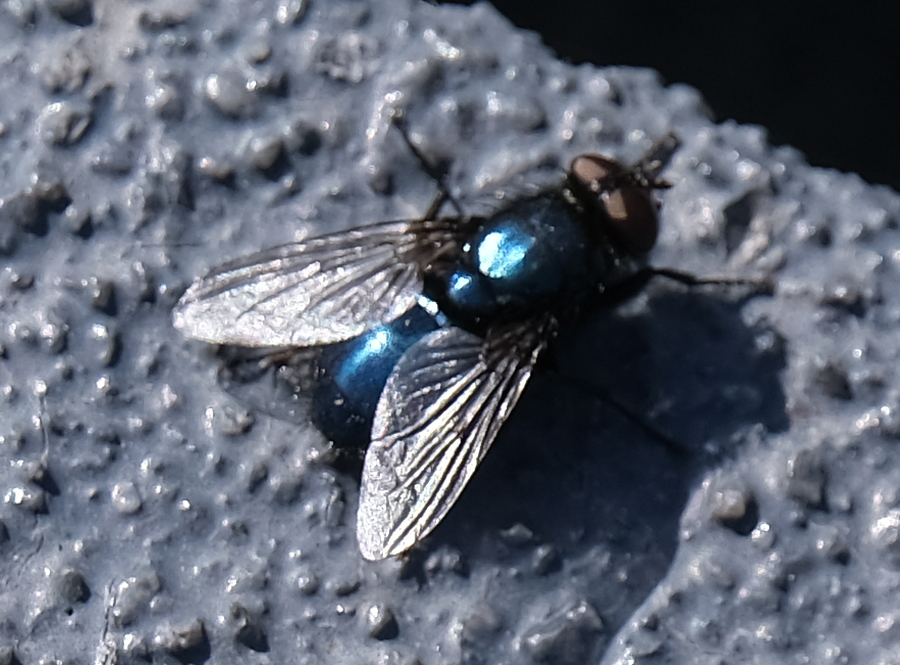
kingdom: Animalia
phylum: Arthropoda
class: Insecta
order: Diptera
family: Calliphoridae
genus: Cynomya
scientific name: Cynomya cadaverina
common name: Shiny blue bottle fly
